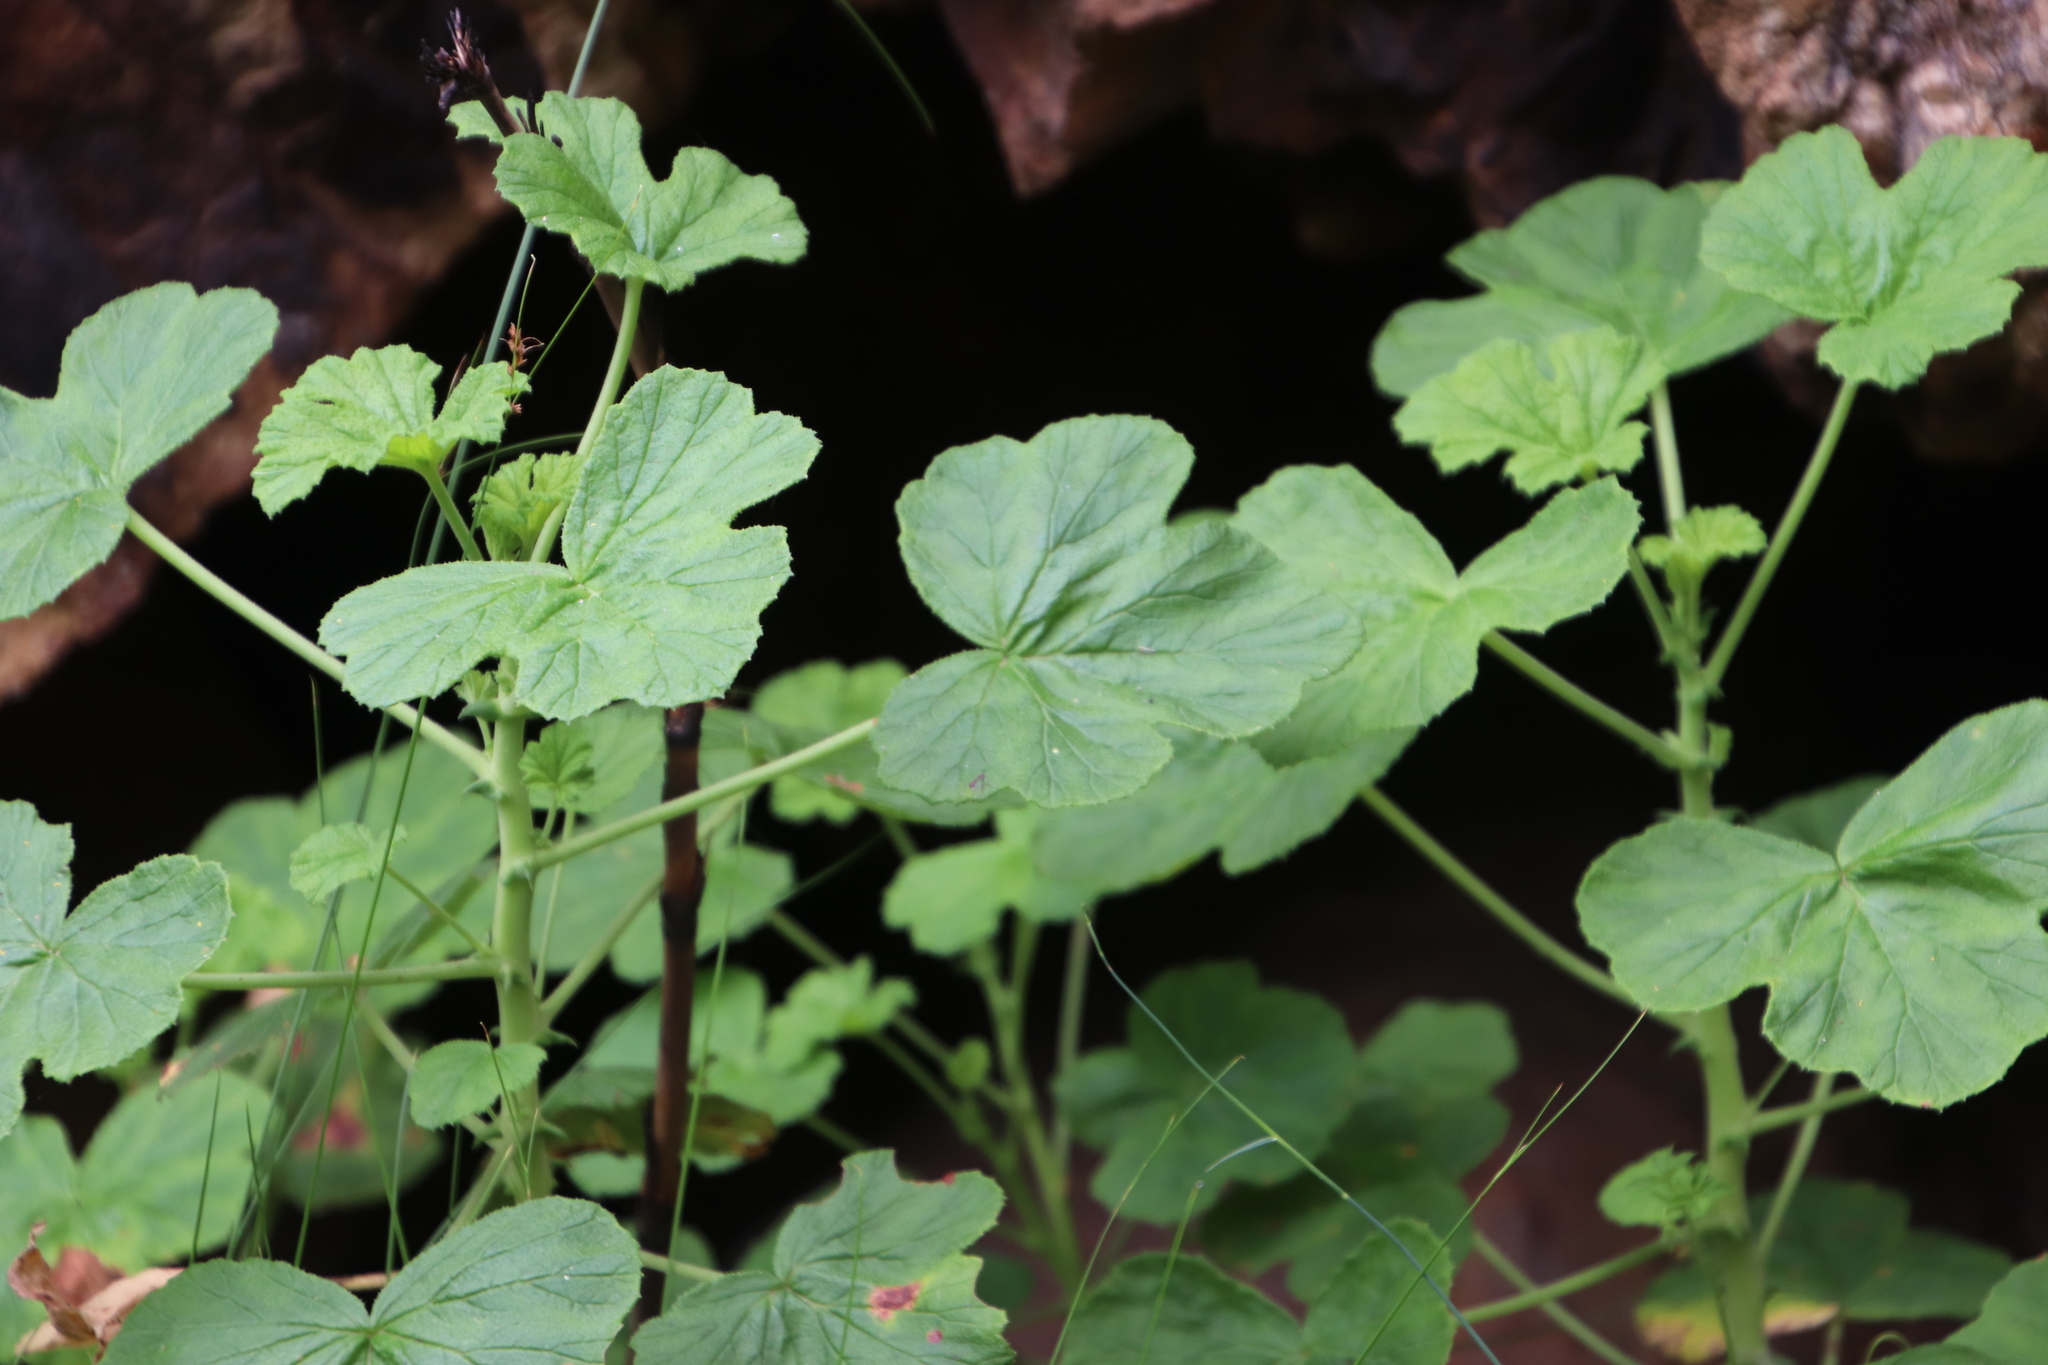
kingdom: Plantae
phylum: Tracheophyta
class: Magnoliopsida
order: Geraniales
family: Geraniaceae
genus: Pelargonium
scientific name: Pelargonium papilionaceum
